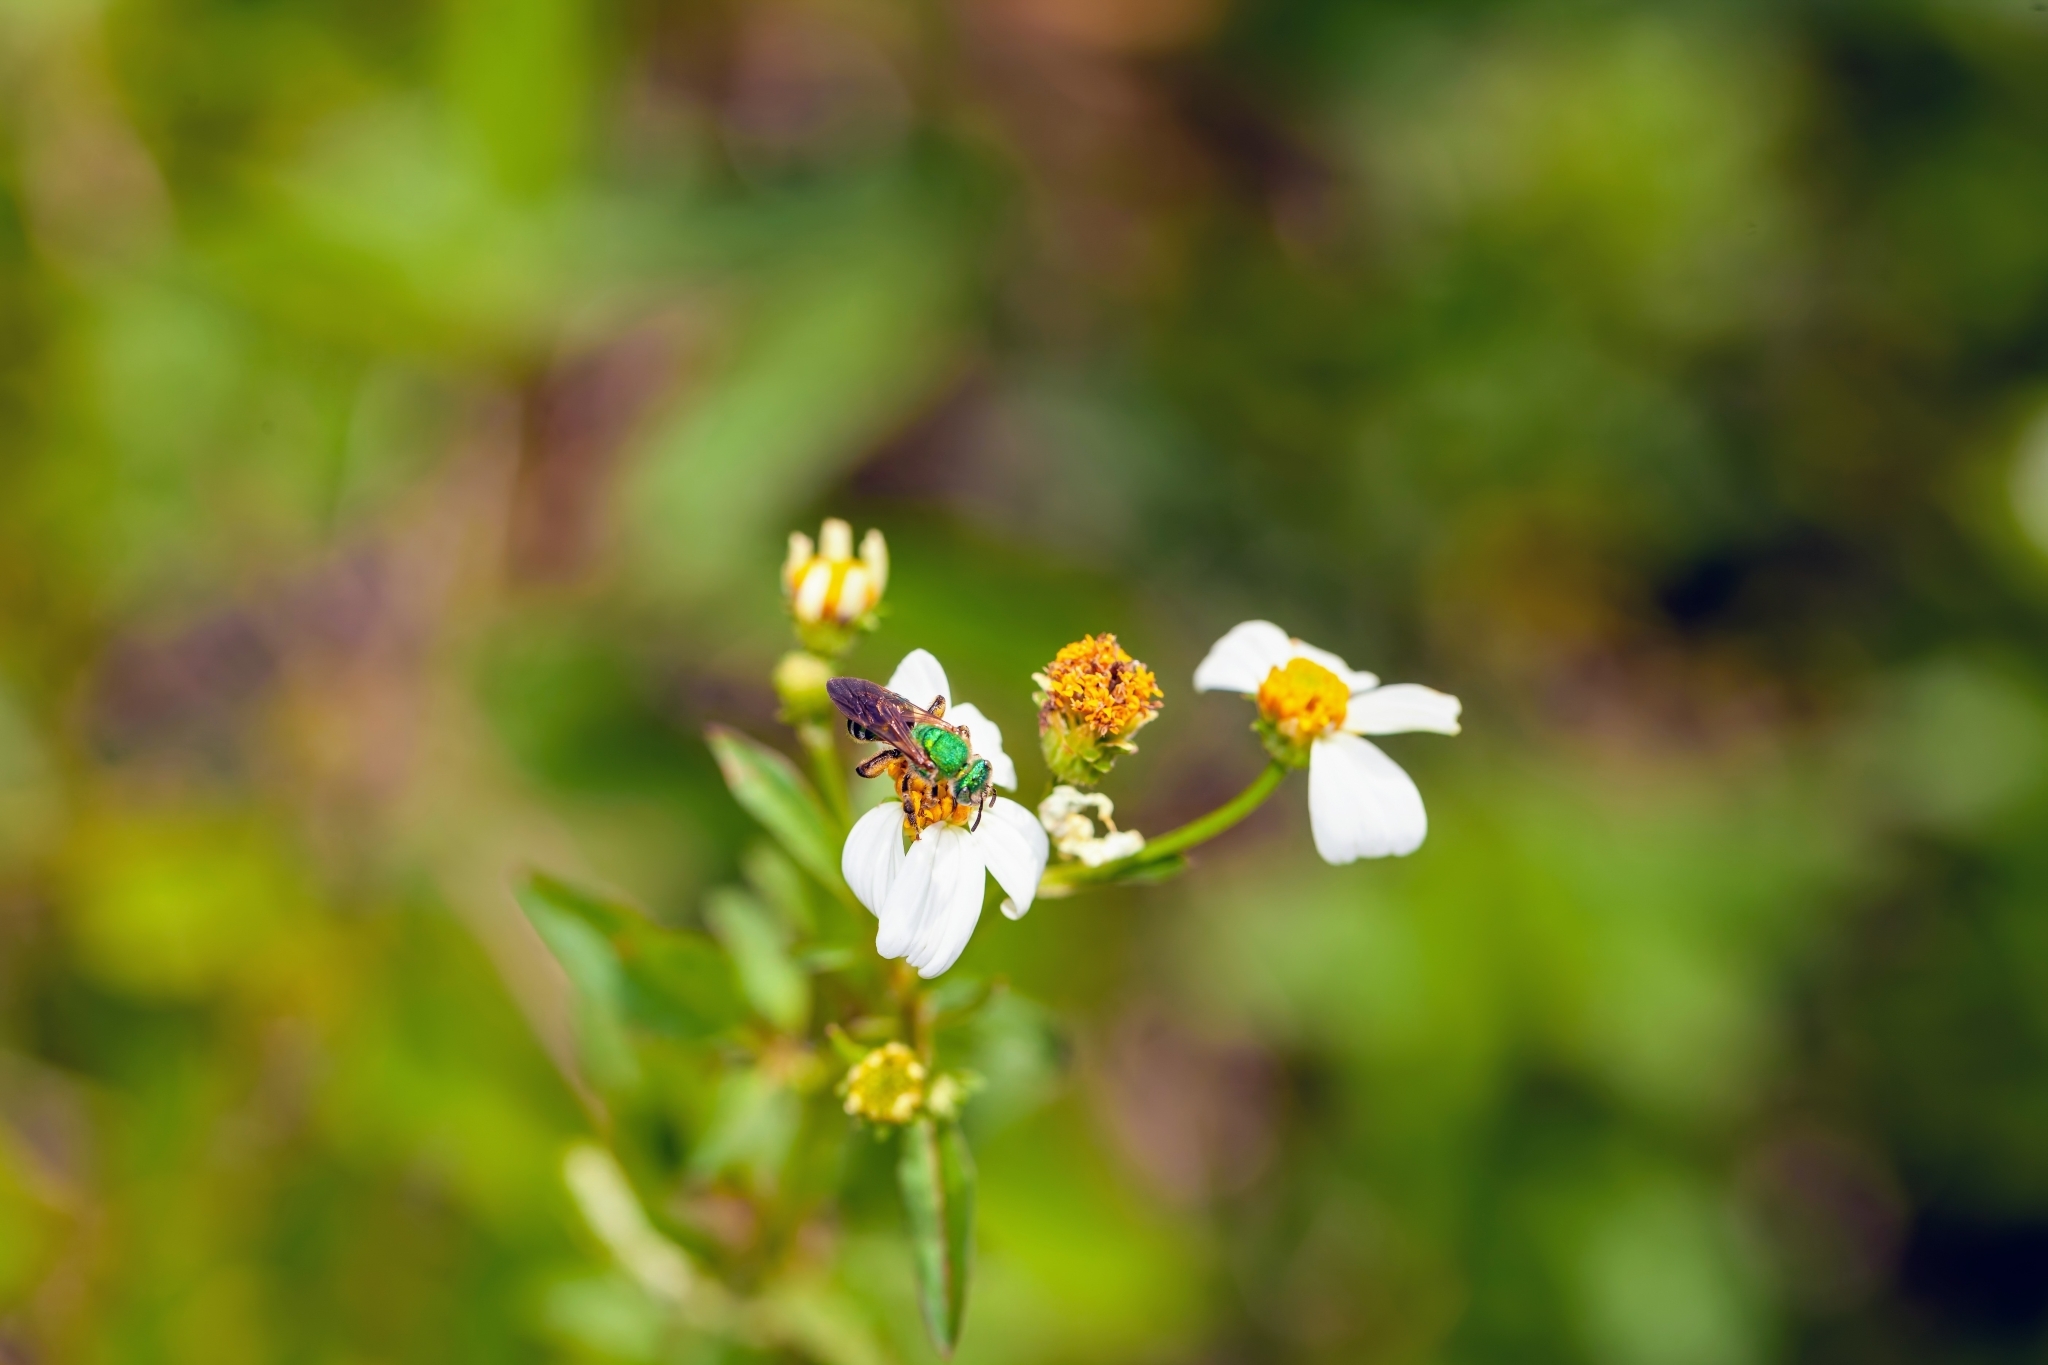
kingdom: Animalia
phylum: Arthropoda
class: Insecta
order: Hymenoptera
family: Halictidae
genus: Agapostemon
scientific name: Agapostemon splendens
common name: Brown-winged striped sweat bee
